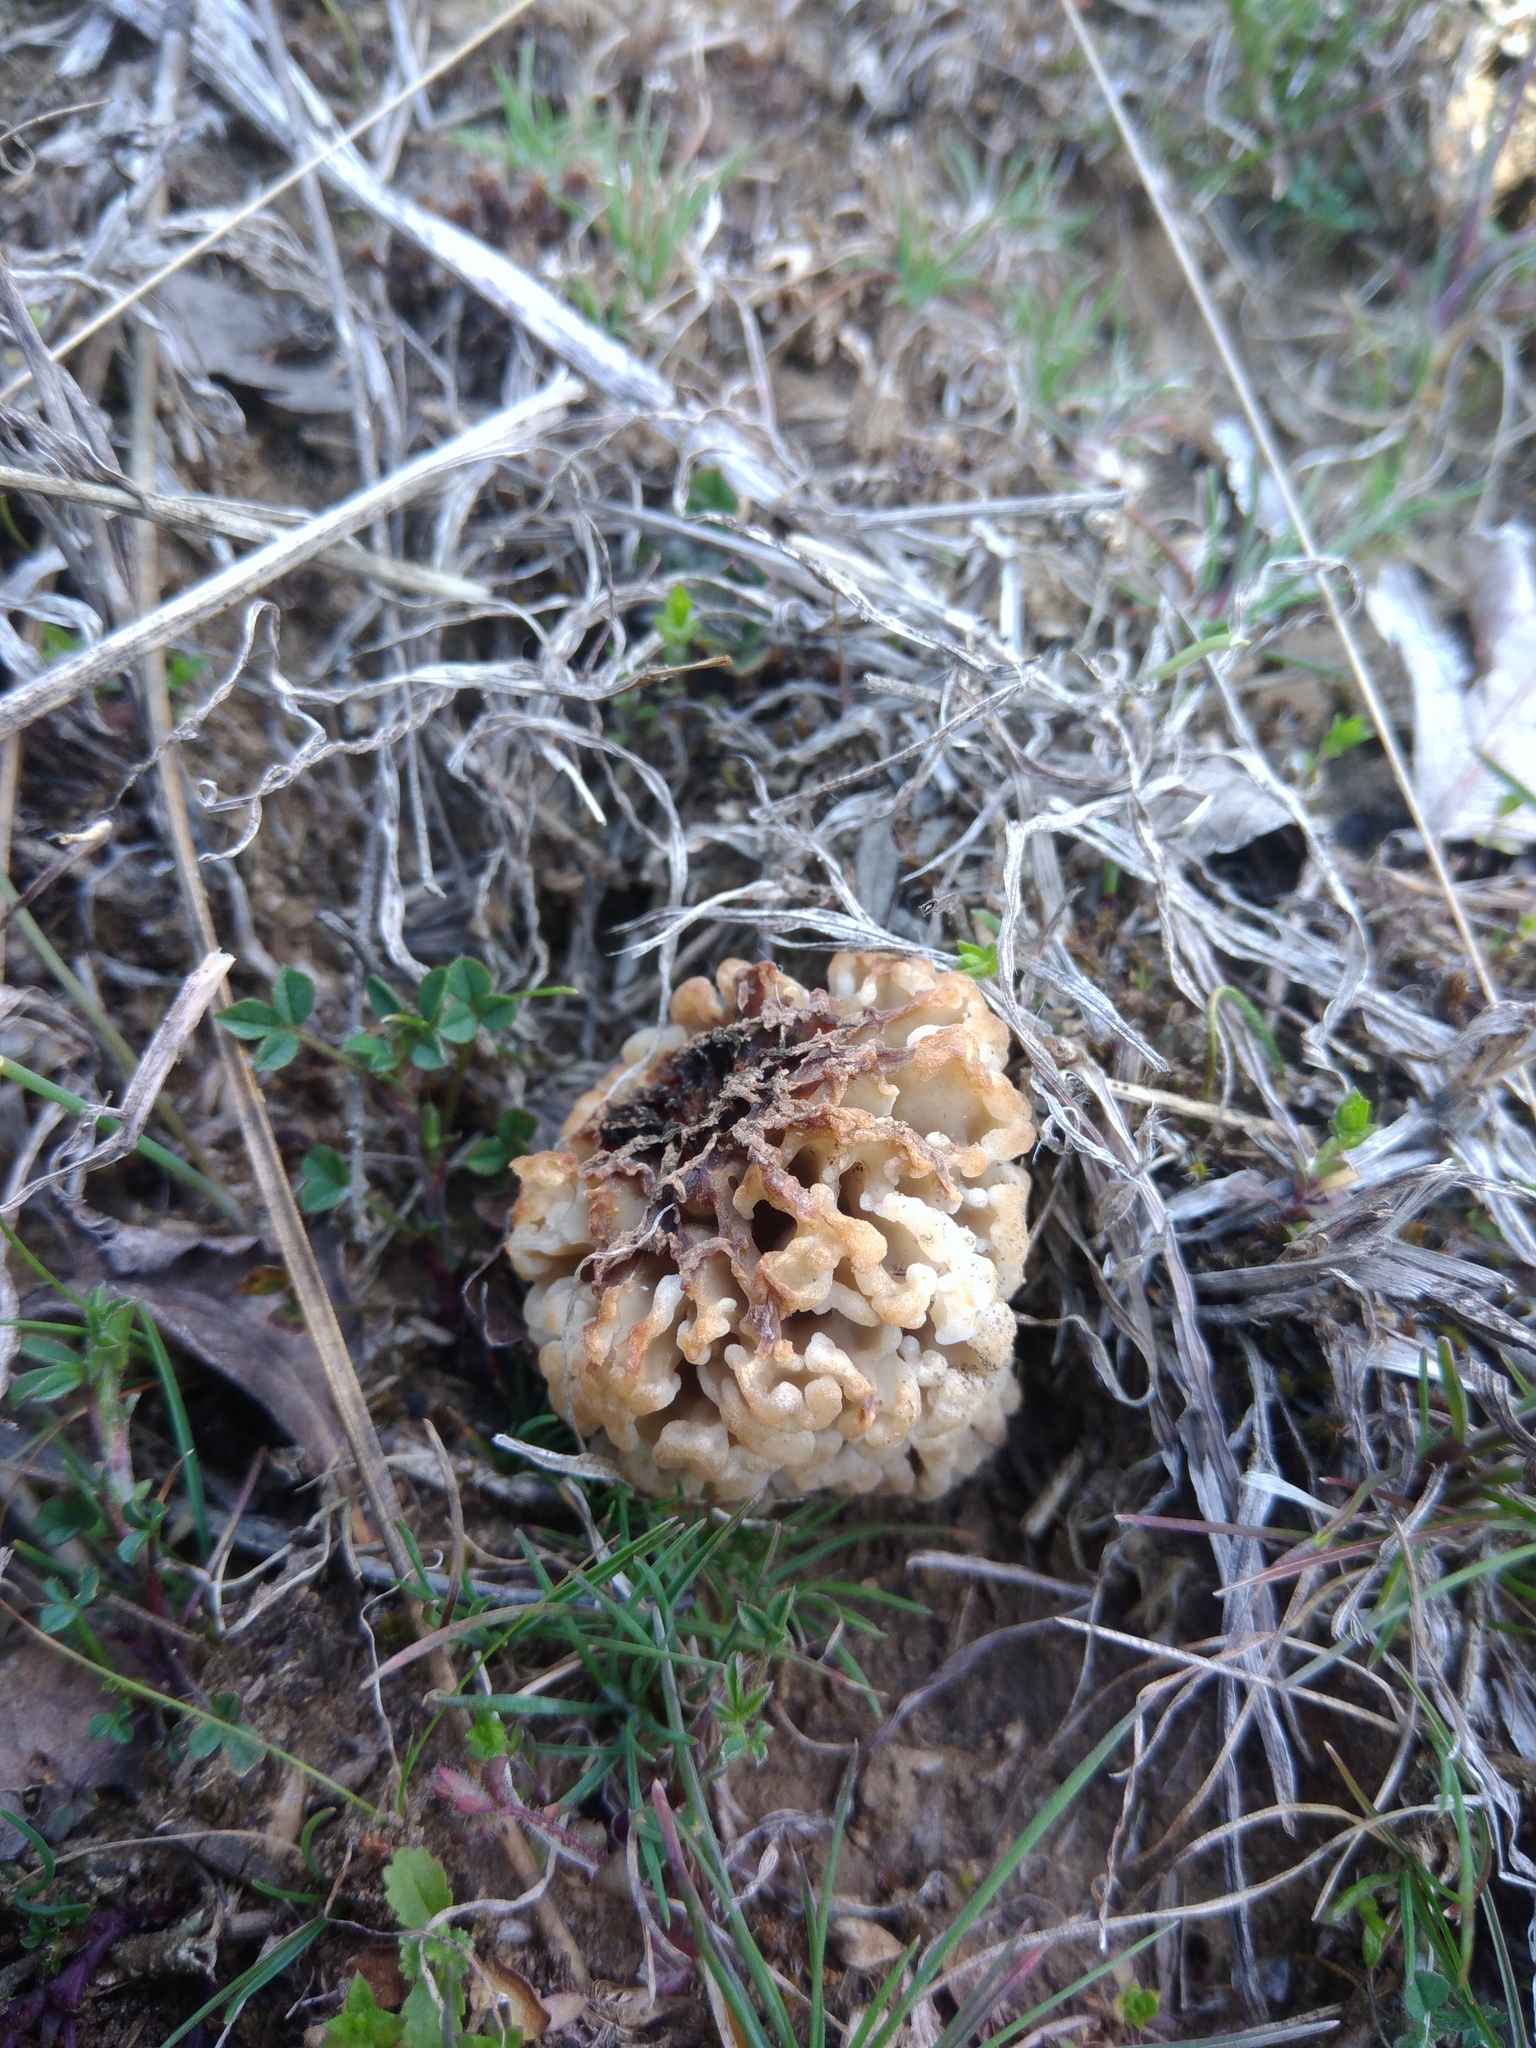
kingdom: Fungi
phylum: Ascomycota
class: Pezizomycetes
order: Pezizales
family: Morchellaceae
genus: Morchella
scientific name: Morchella steppicola
